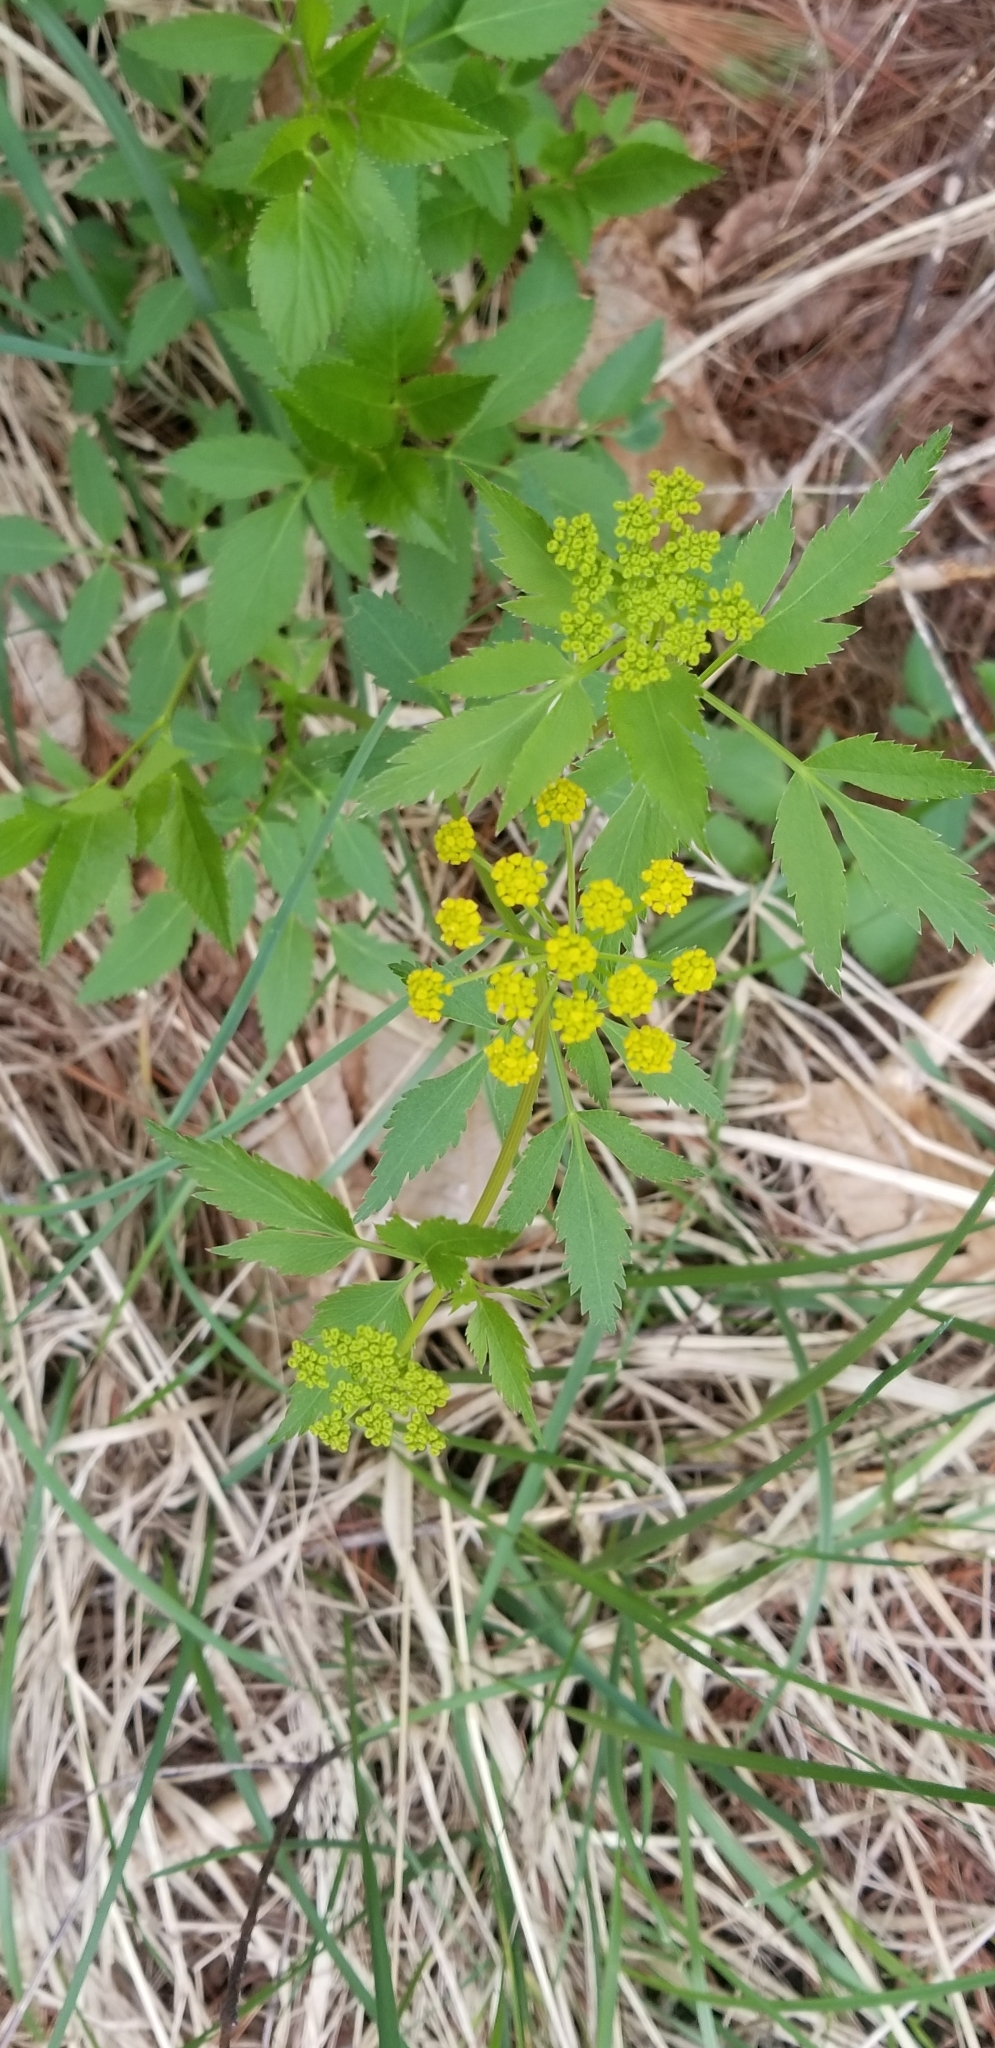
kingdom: Plantae
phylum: Tracheophyta
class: Magnoliopsida
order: Apiales
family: Apiaceae
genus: Zizia
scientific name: Zizia aurea
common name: Golden alexanders
